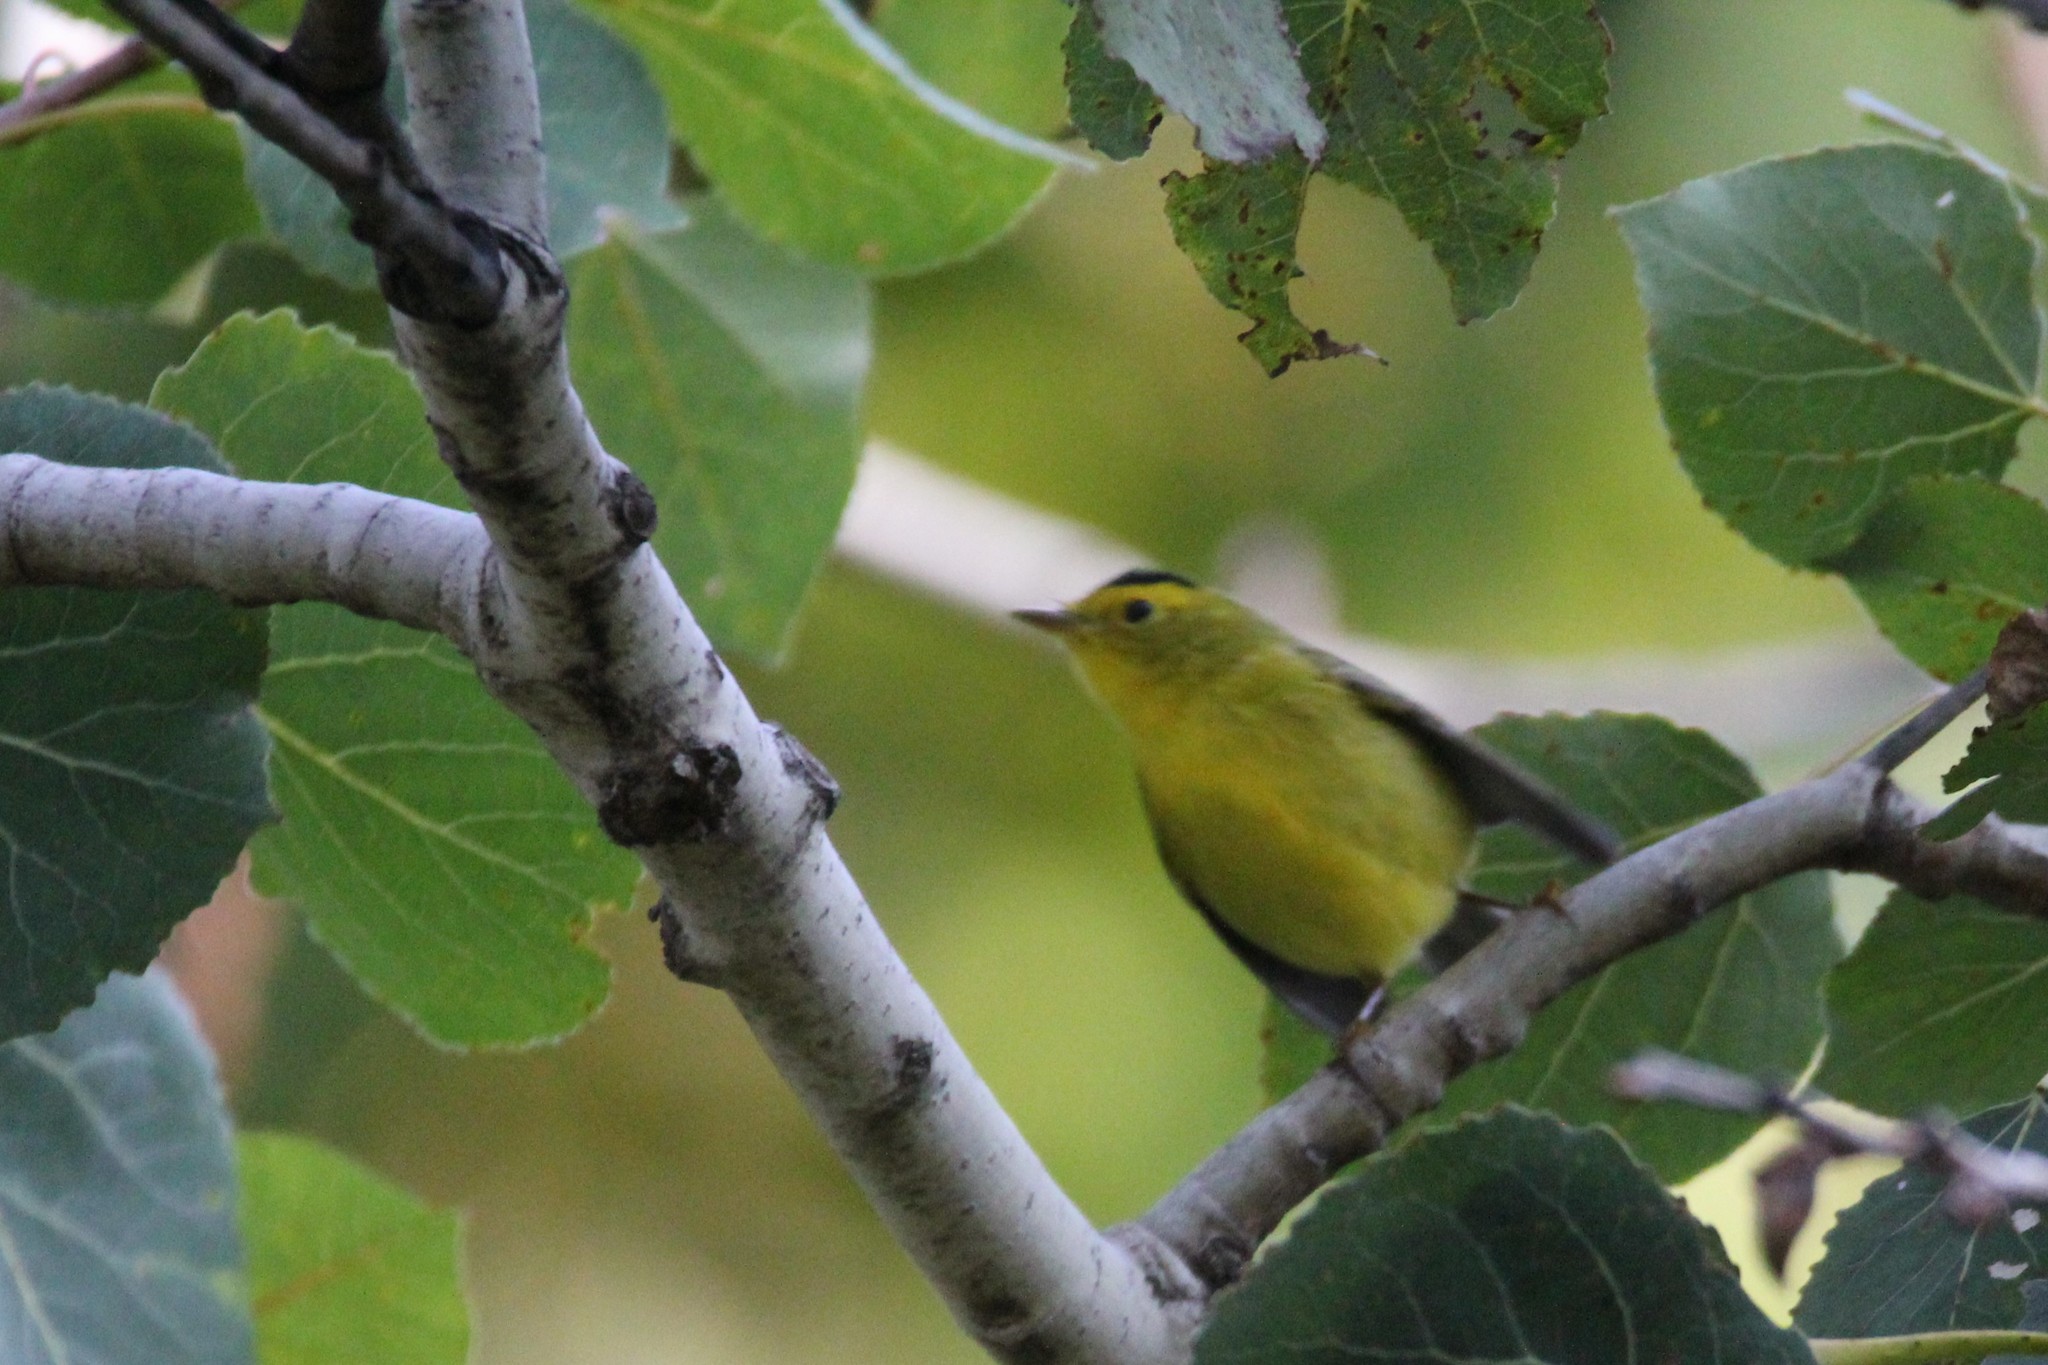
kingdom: Animalia
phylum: Chordata
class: Aves
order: Passeriformes
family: Parulidae
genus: Cardellina
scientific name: Cardellina pusilla
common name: Wilson's warbler
